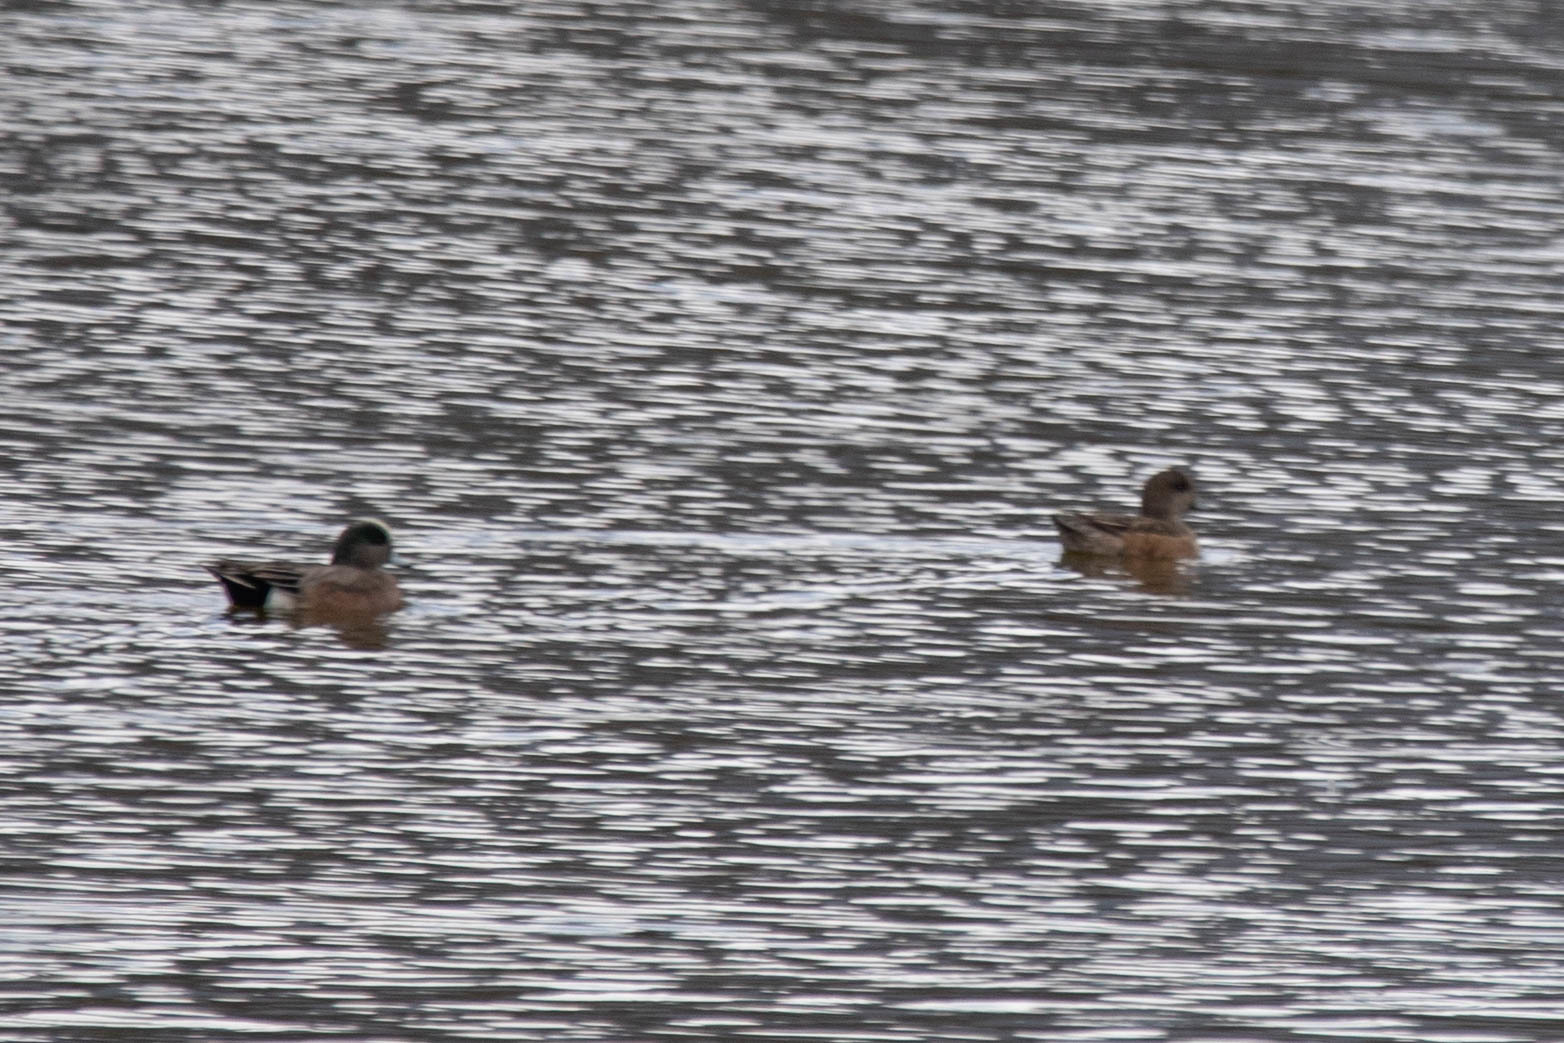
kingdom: Animalia
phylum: Chordata
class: Aves
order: Anseriformes
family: Anatidae
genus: Mareca
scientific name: Mareca americana
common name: American wigeon
